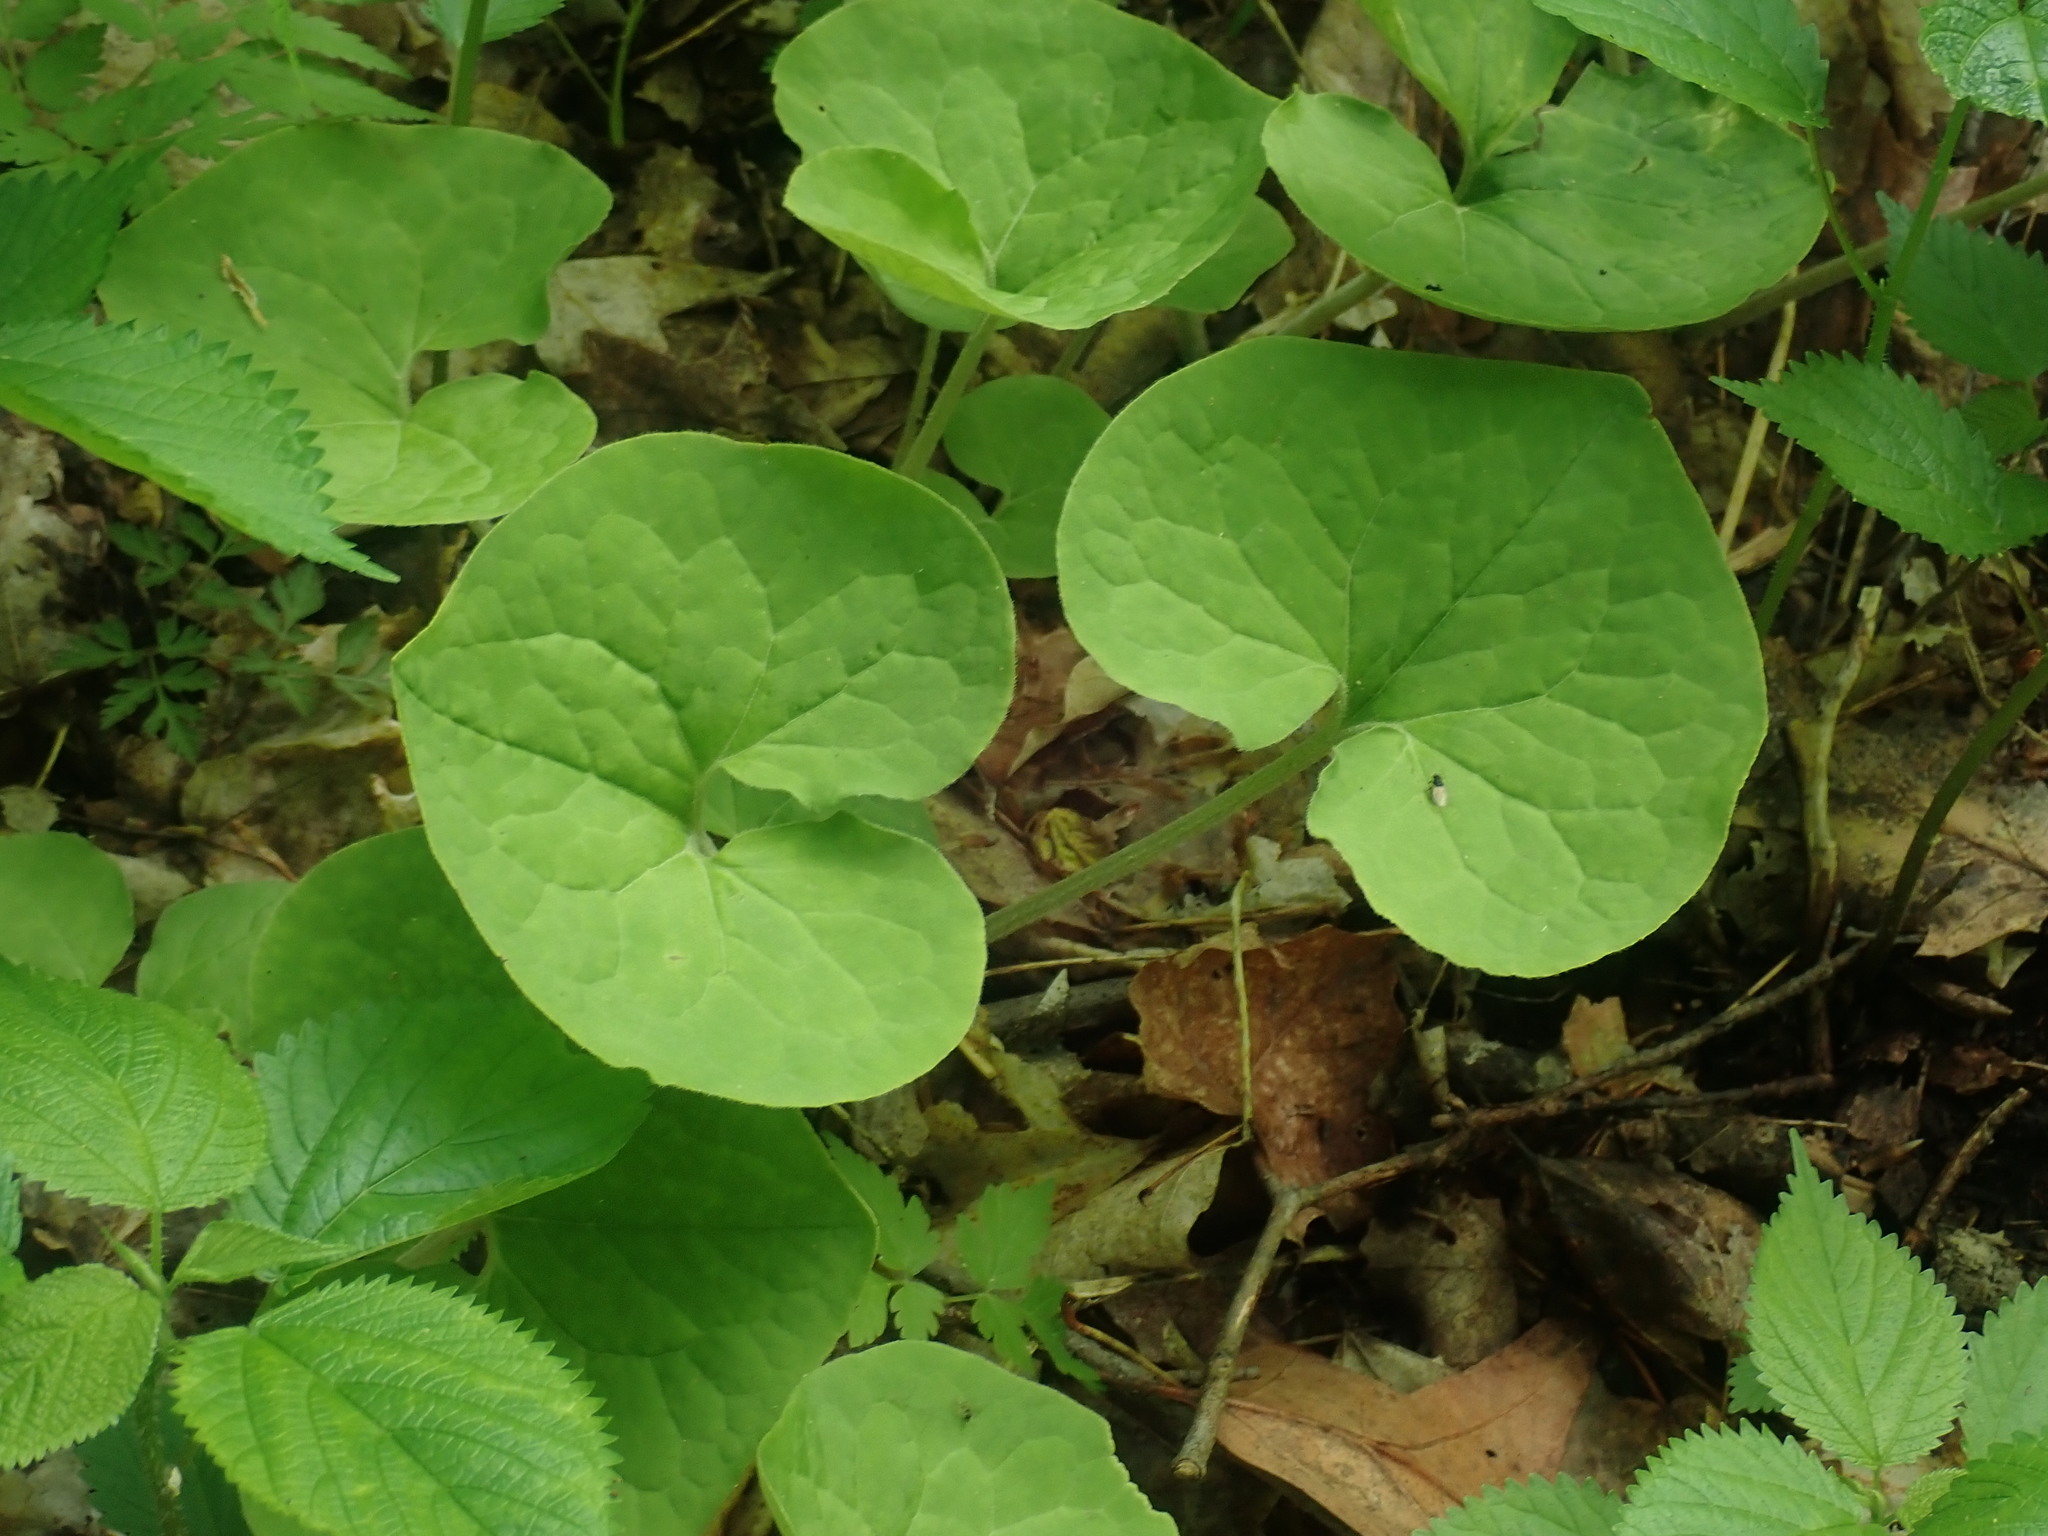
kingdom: Plantae
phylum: Tracheophyta
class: Magnoliopsida
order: Piperales
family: Aristolochiaceae
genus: Asarum
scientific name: Asarum canadense
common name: Wild ginger
